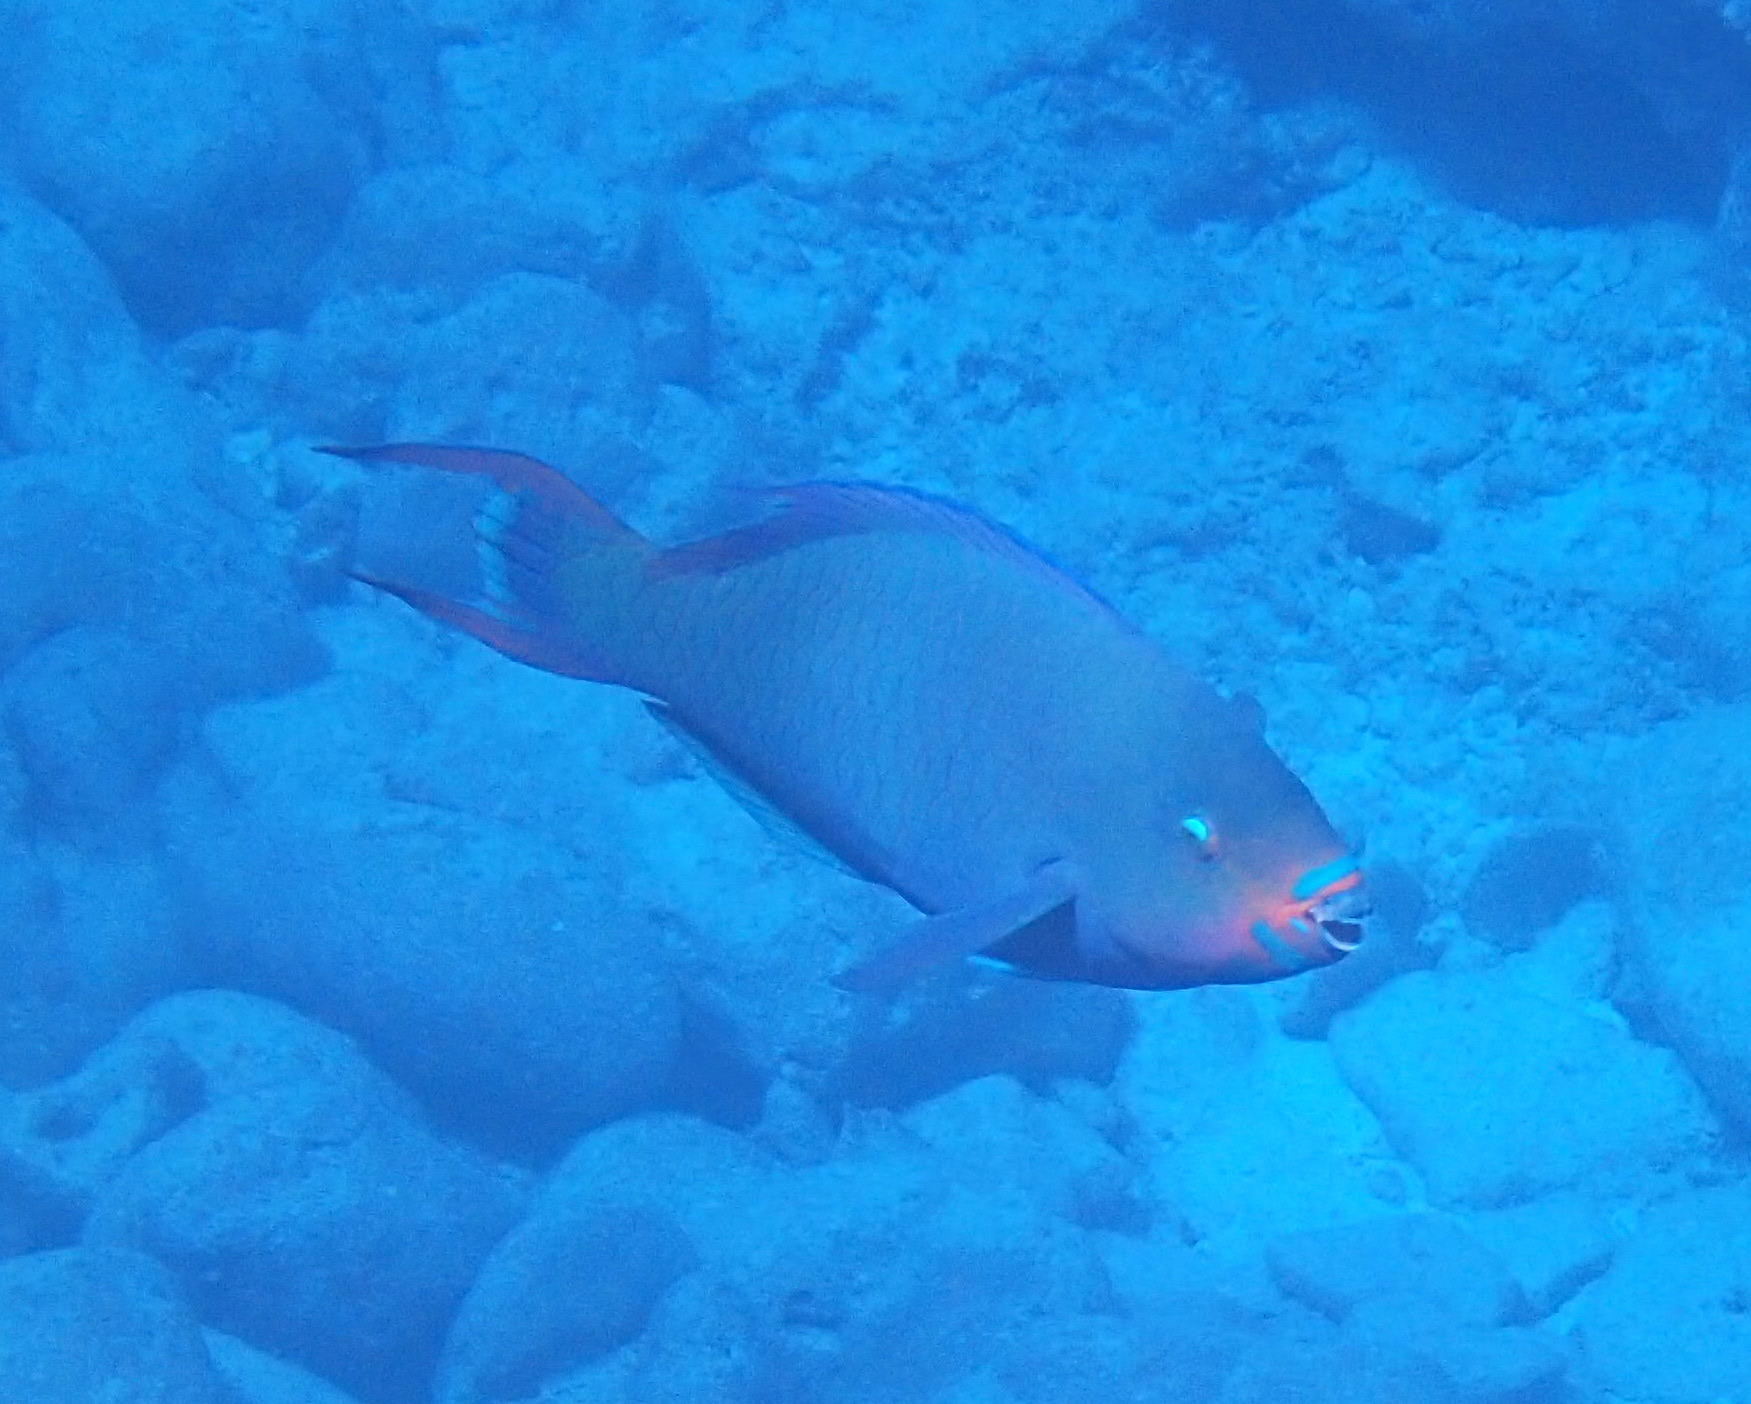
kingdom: Animalia
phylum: Chordata
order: Perciformes
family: Scaridae
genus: Scarus
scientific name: Scarus altipinnis
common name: Minifin parrotfish
